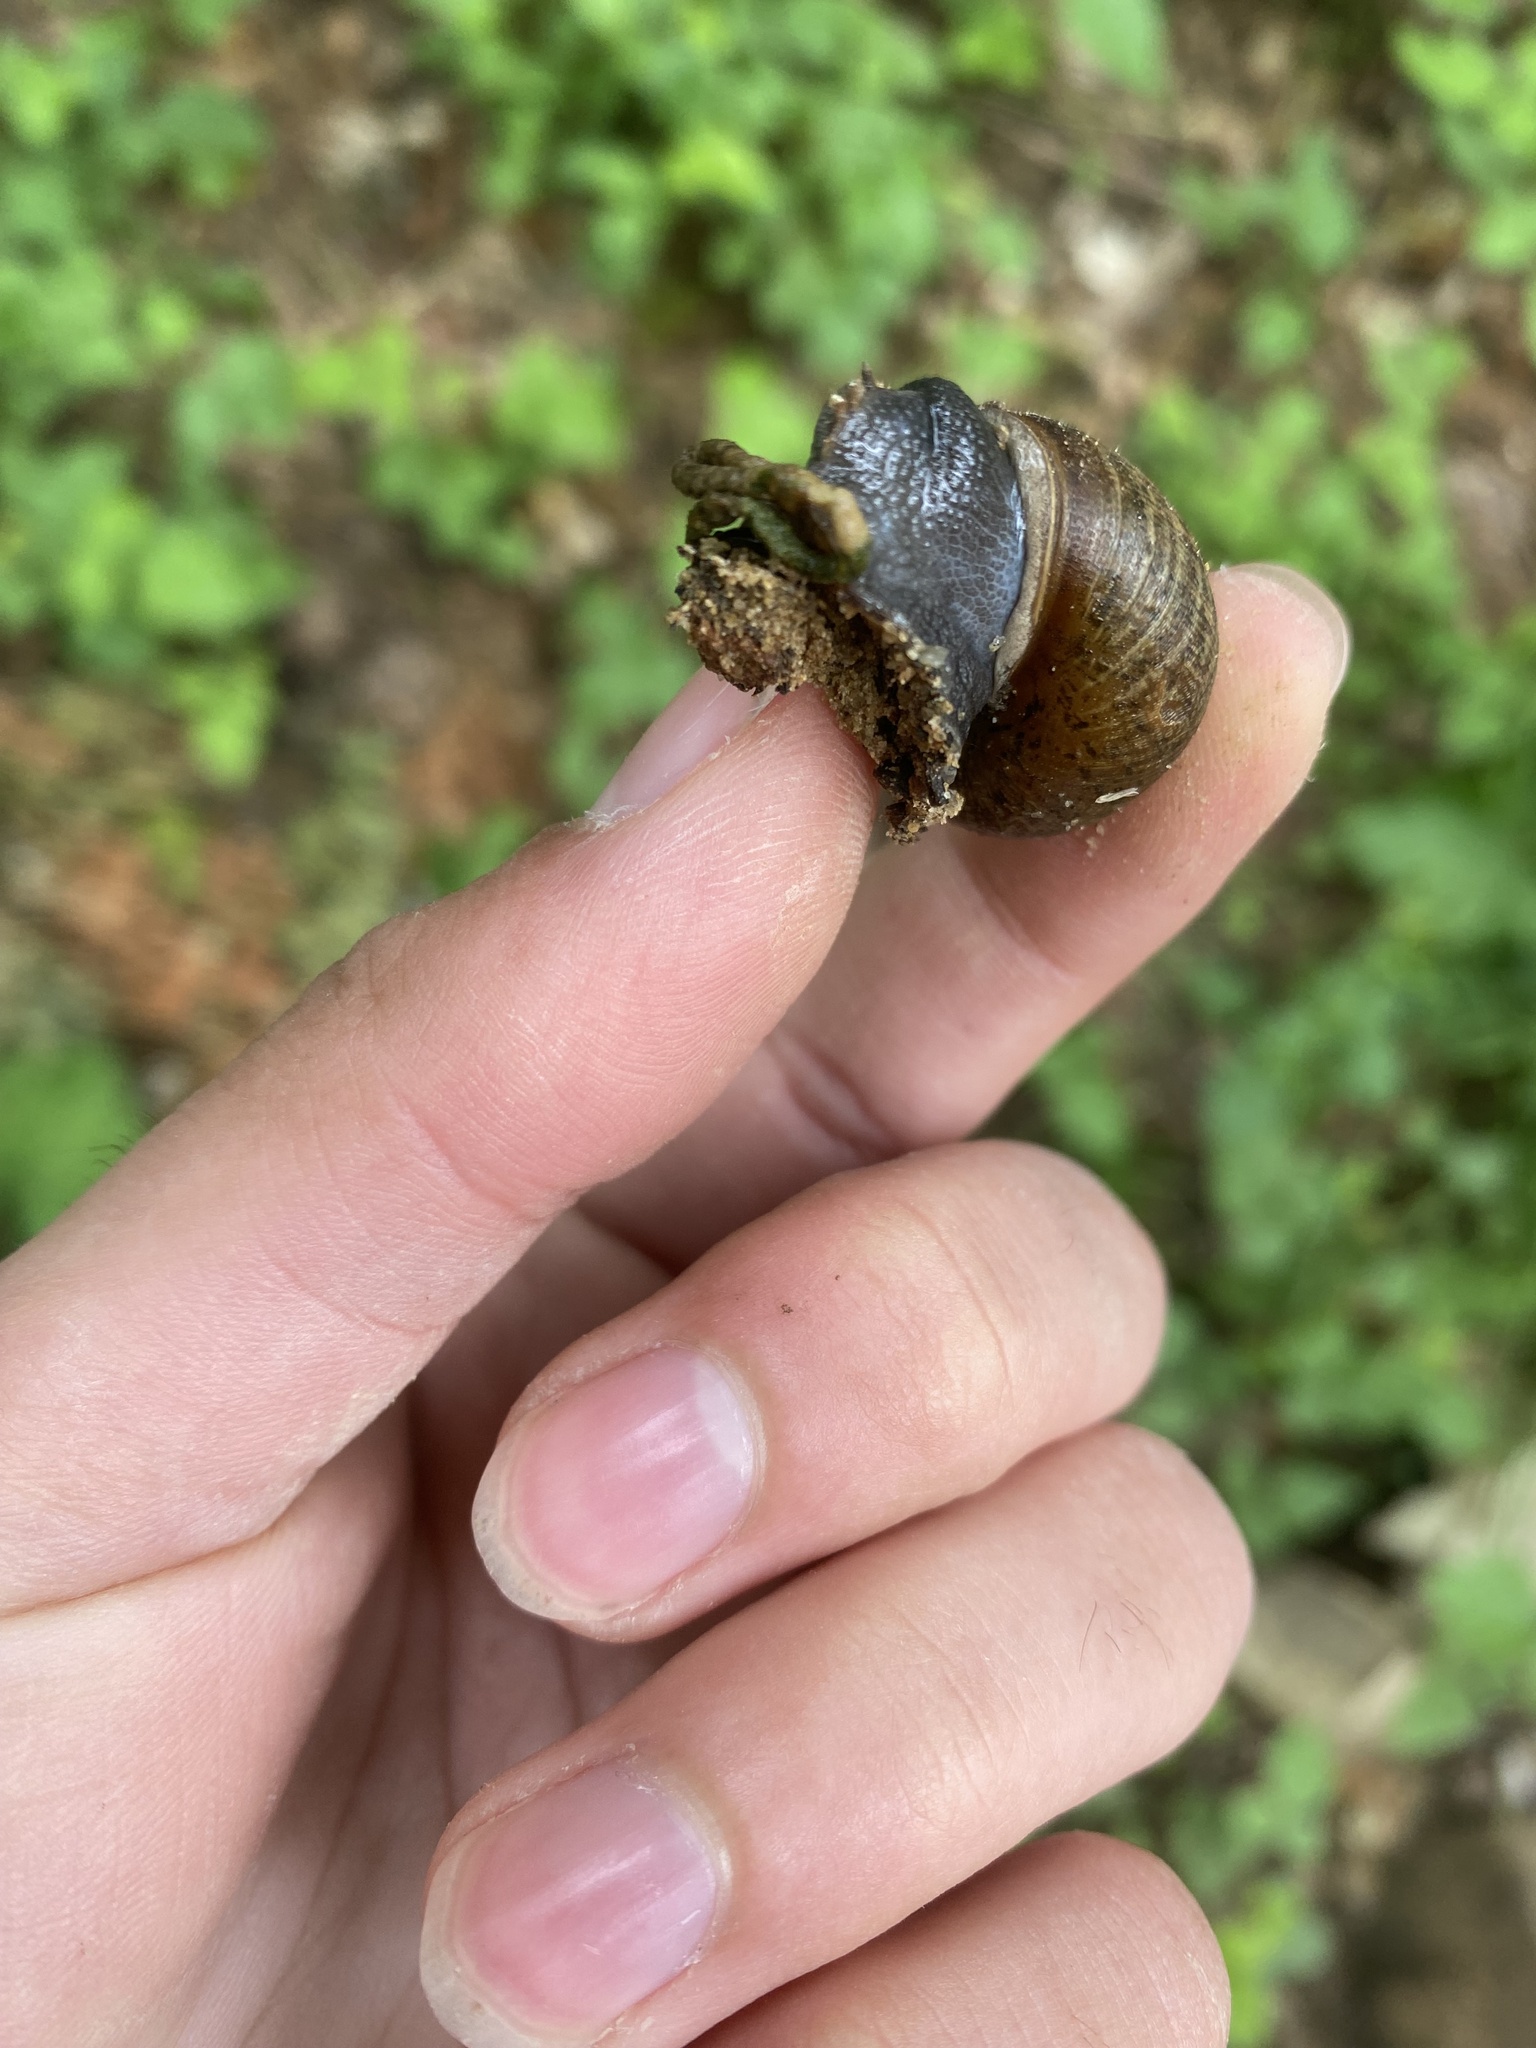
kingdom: Animalia
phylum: Mollusca
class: Gastropoda
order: Stylommatophora
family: Xanthonychidae
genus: Helminthoglypta
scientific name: Helminthoglypta nickliniana
